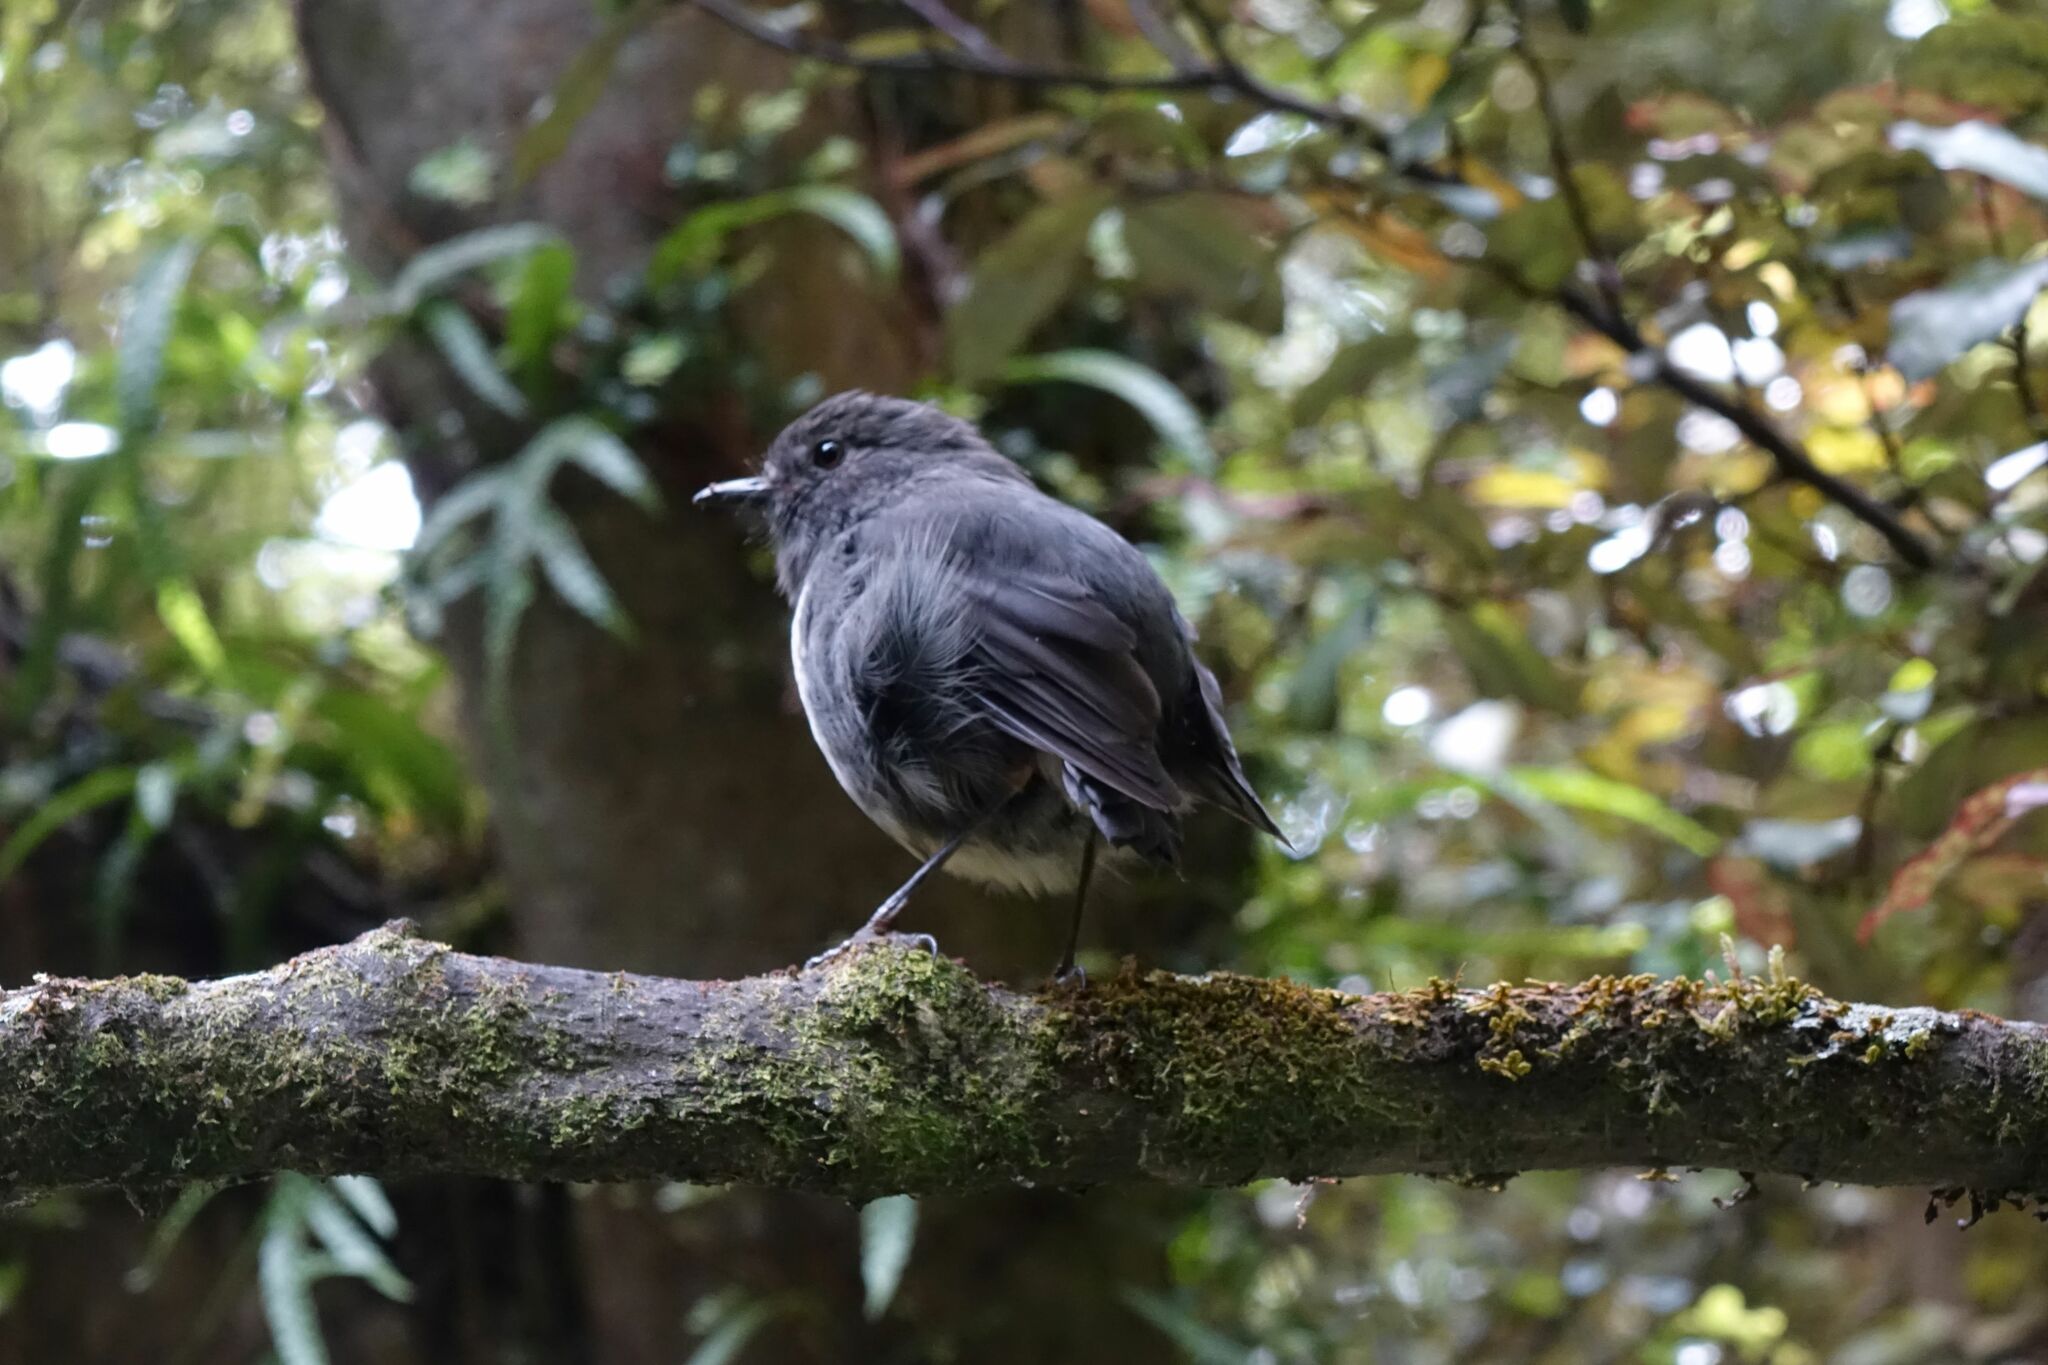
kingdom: Animalia
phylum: Chordata
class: Aves
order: Passeriformes
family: Petroicidae
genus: Petroica
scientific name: Petroica australis
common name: New zealand robin
